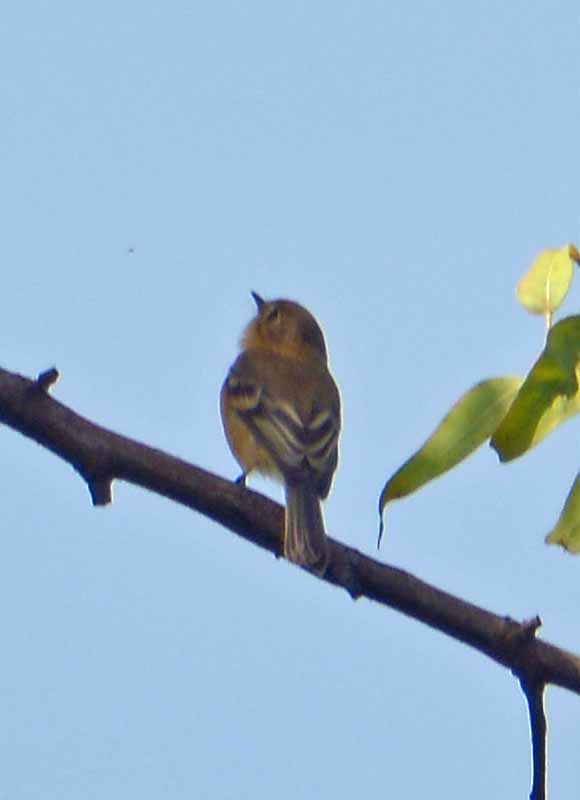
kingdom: Animalia
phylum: Chordata
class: Aves
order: Passeriformes
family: Tyrannidae
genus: Empidonax
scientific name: Empidonax fulvifrons
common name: Buff-breasted flycatcher
